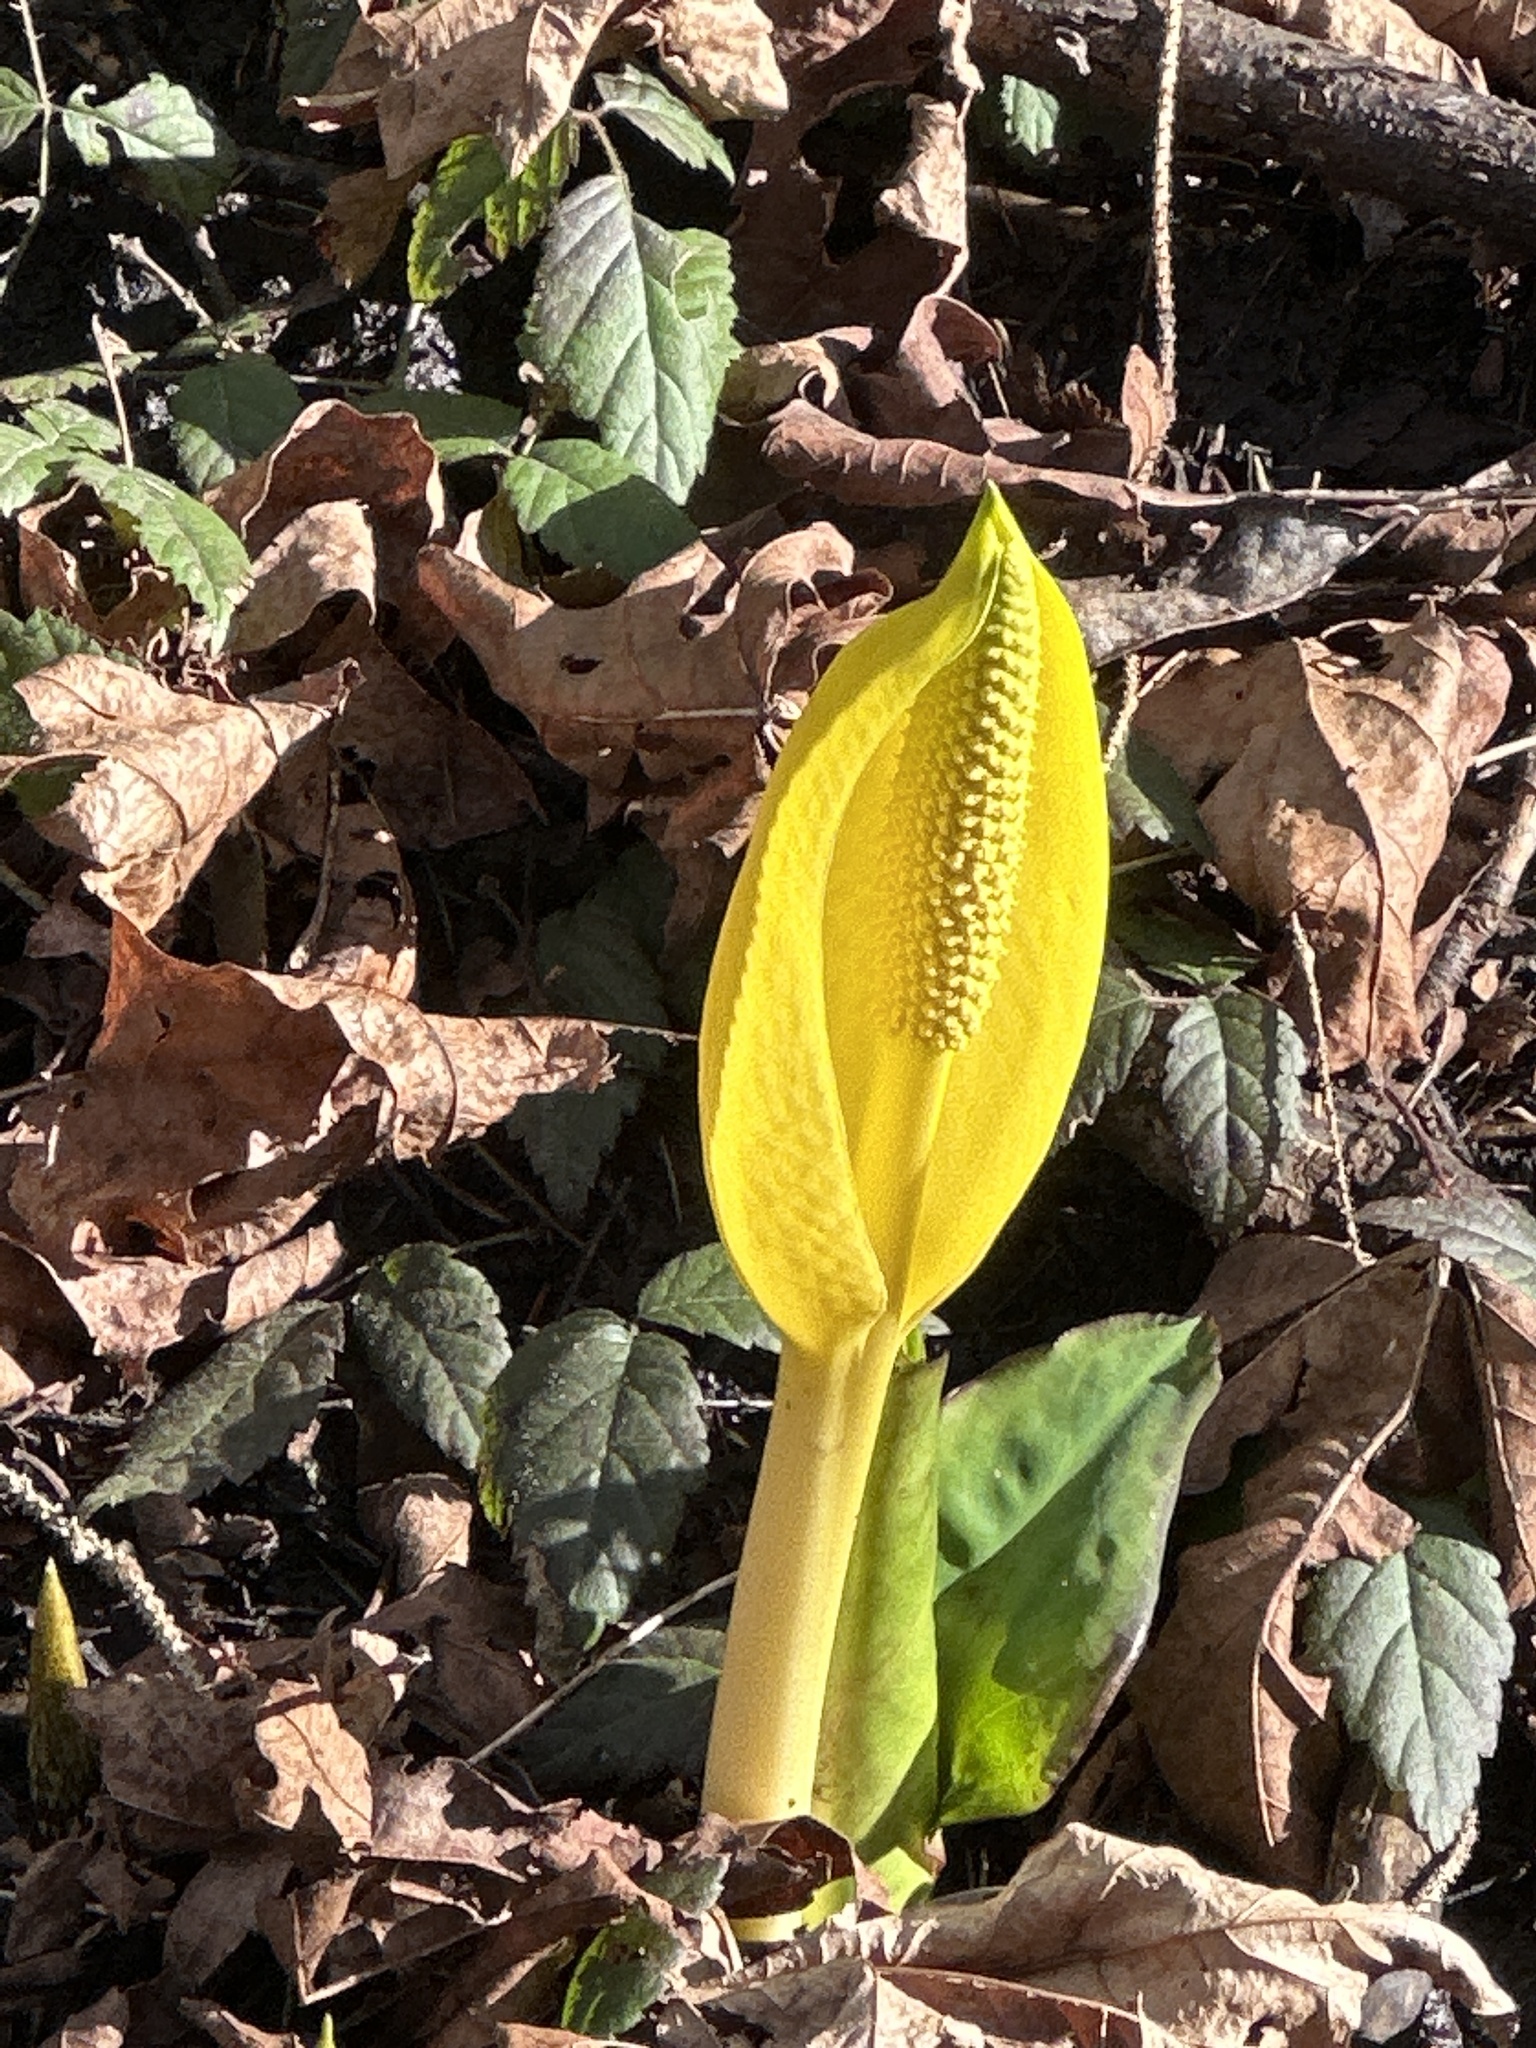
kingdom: Plantae
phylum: Tracheophyta
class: Liliopsida
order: Alismatales
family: Araceae
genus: Lysichiton
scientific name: Lysichiton americanus
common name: American skunk cabbage
